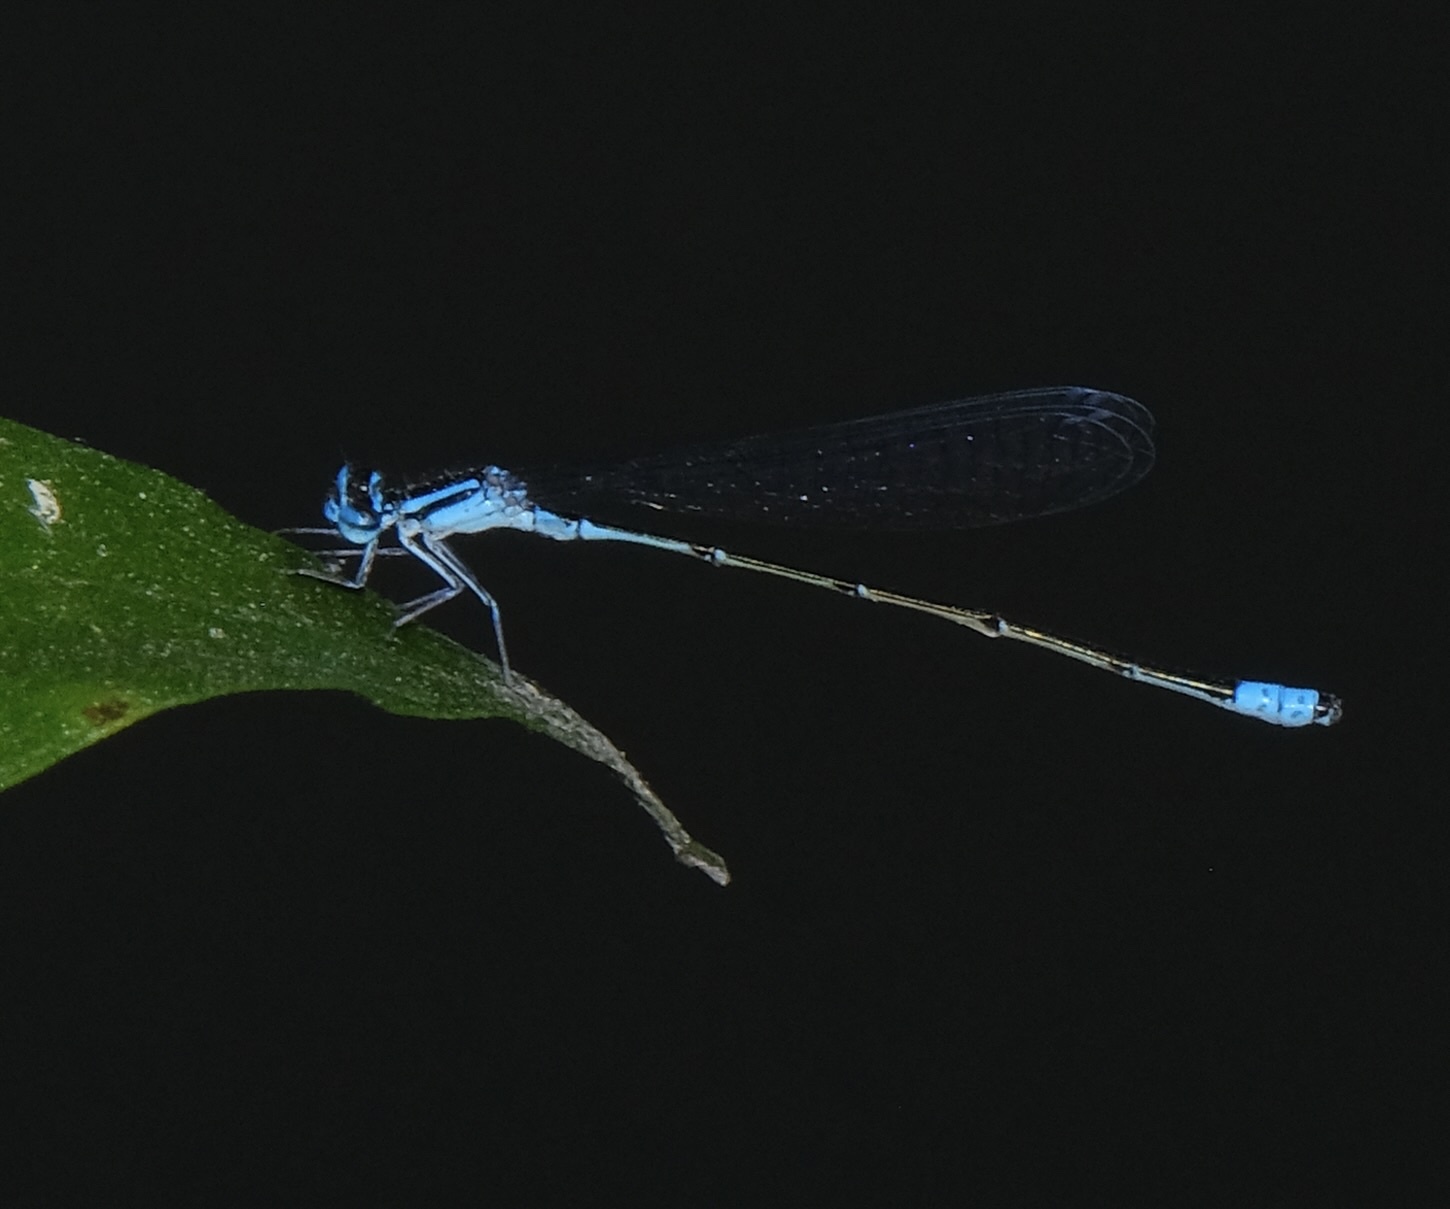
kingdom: Animalia
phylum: Arthropoda
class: Insecta
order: Odonata
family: Coenagrionidae
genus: Enallagma
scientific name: Enallagma divagans
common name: Turquoise bluet
